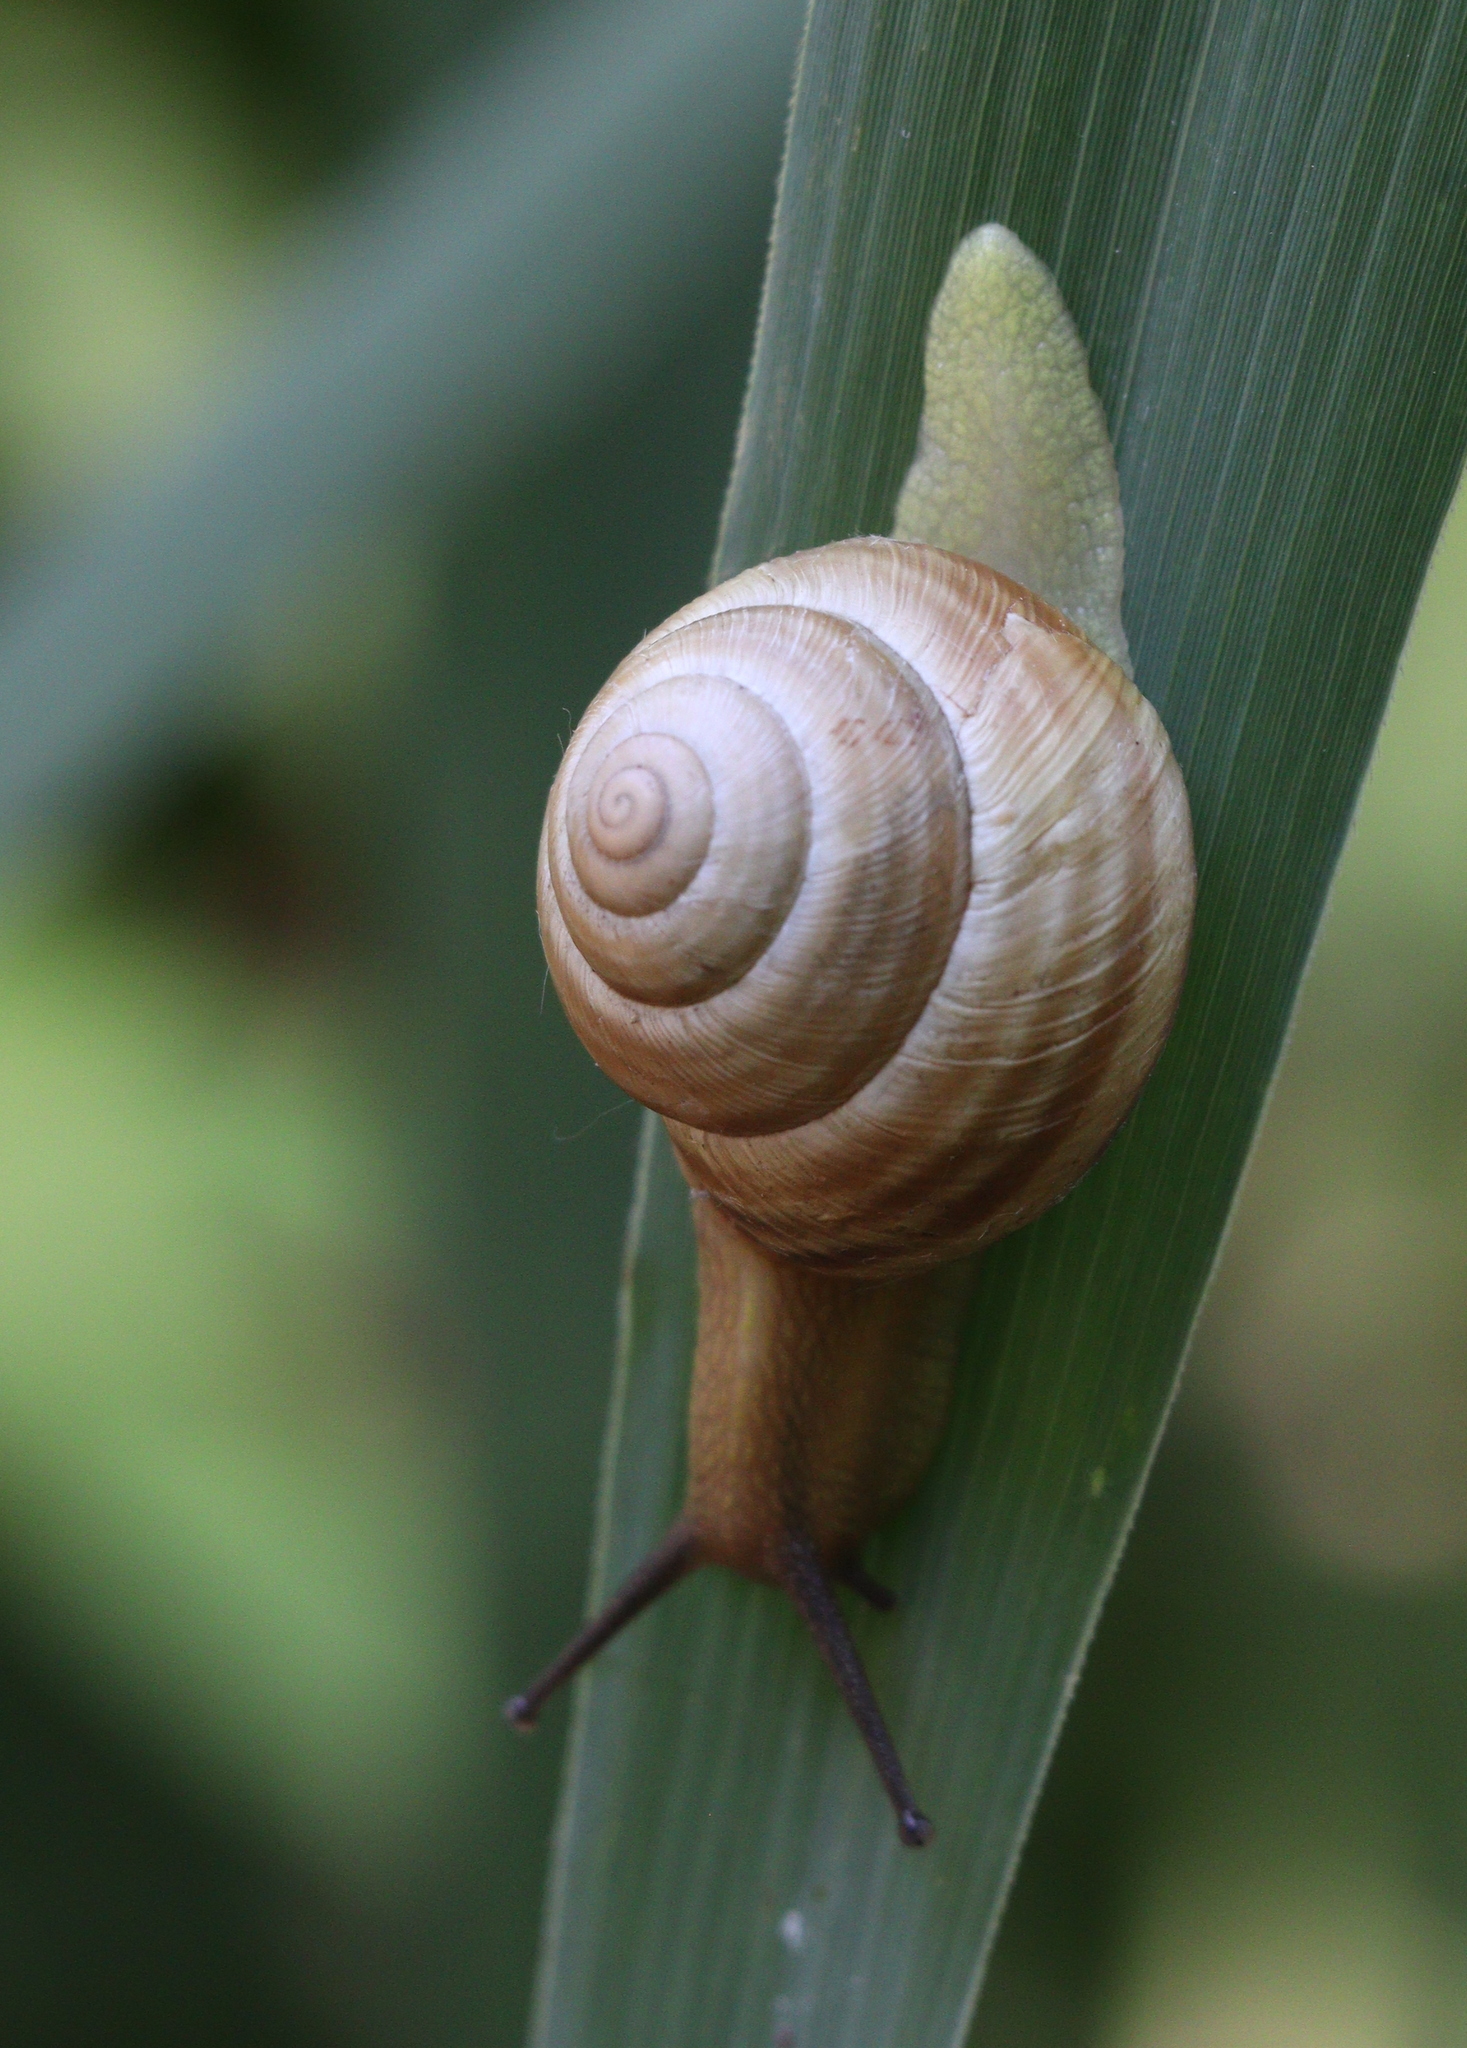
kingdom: Animalia
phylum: Mollusca
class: Gastropoda
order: Stylommatophora
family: Helicidae
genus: Caucasotachea
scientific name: Caucasotachea vindobonensis
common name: European helicid land snail
